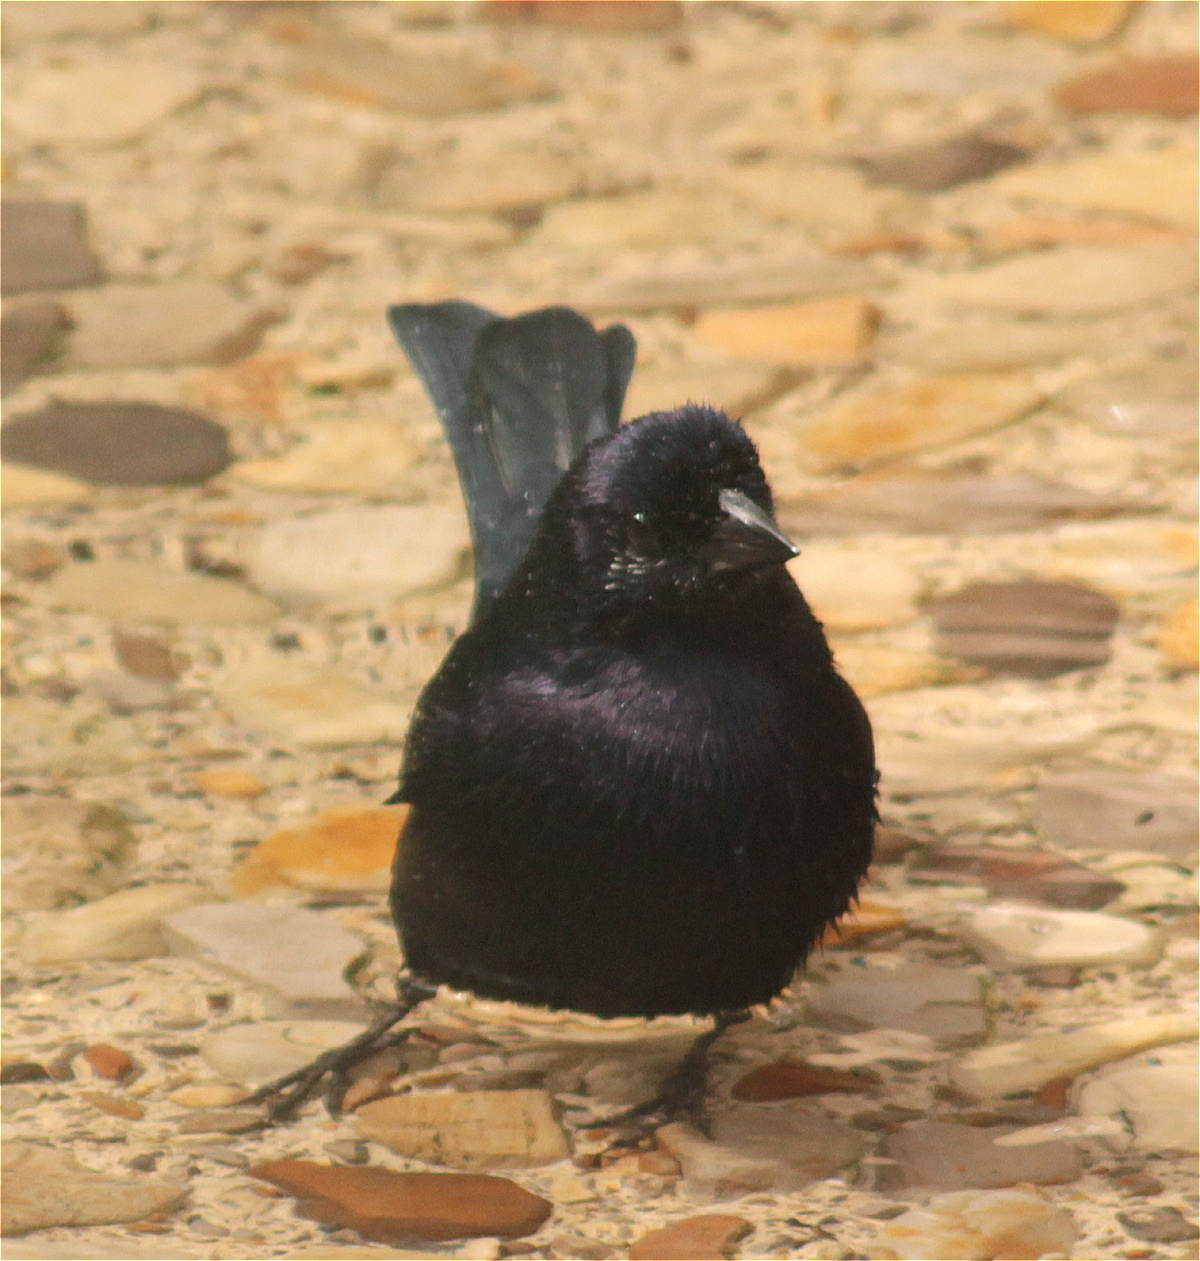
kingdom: Animalia
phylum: Chordata
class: Aves
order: Passeriformes
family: Icteridae
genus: Molothrus
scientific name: Molothrus bonariensis
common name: Shiny cowbird
